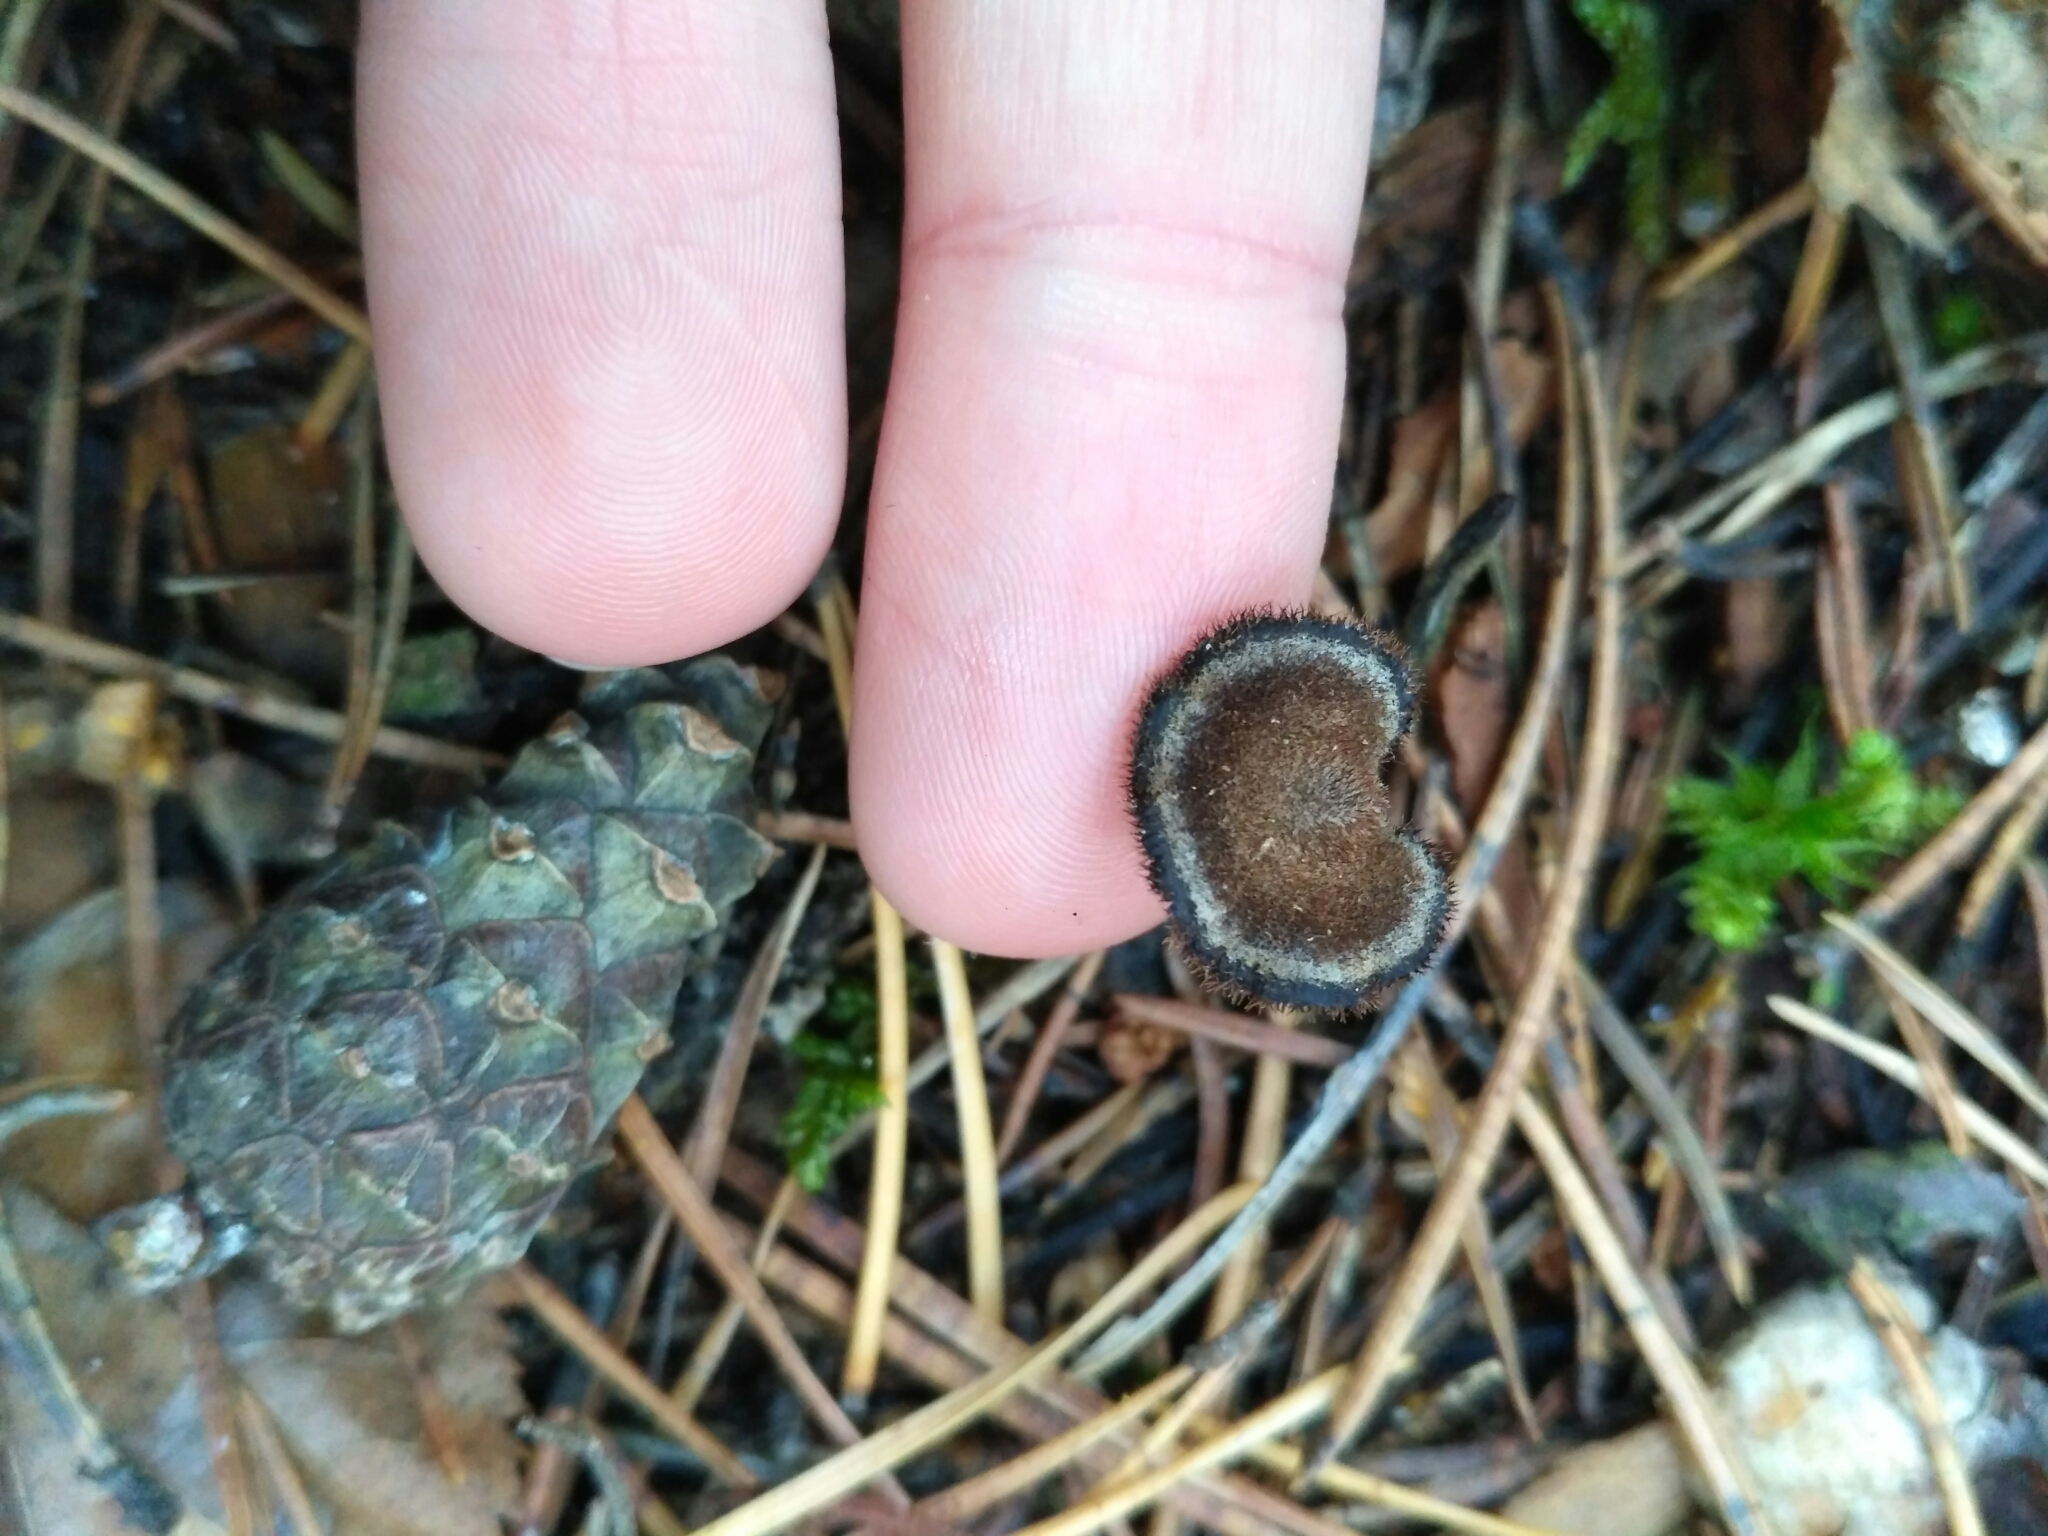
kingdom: Fungi
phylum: Basidiomycota
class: Agaricomycetes
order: Russulales
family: Auriscalpiaceae
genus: Auriscalpium
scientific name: Auriscalpium vulgare
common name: Earpick fungus
